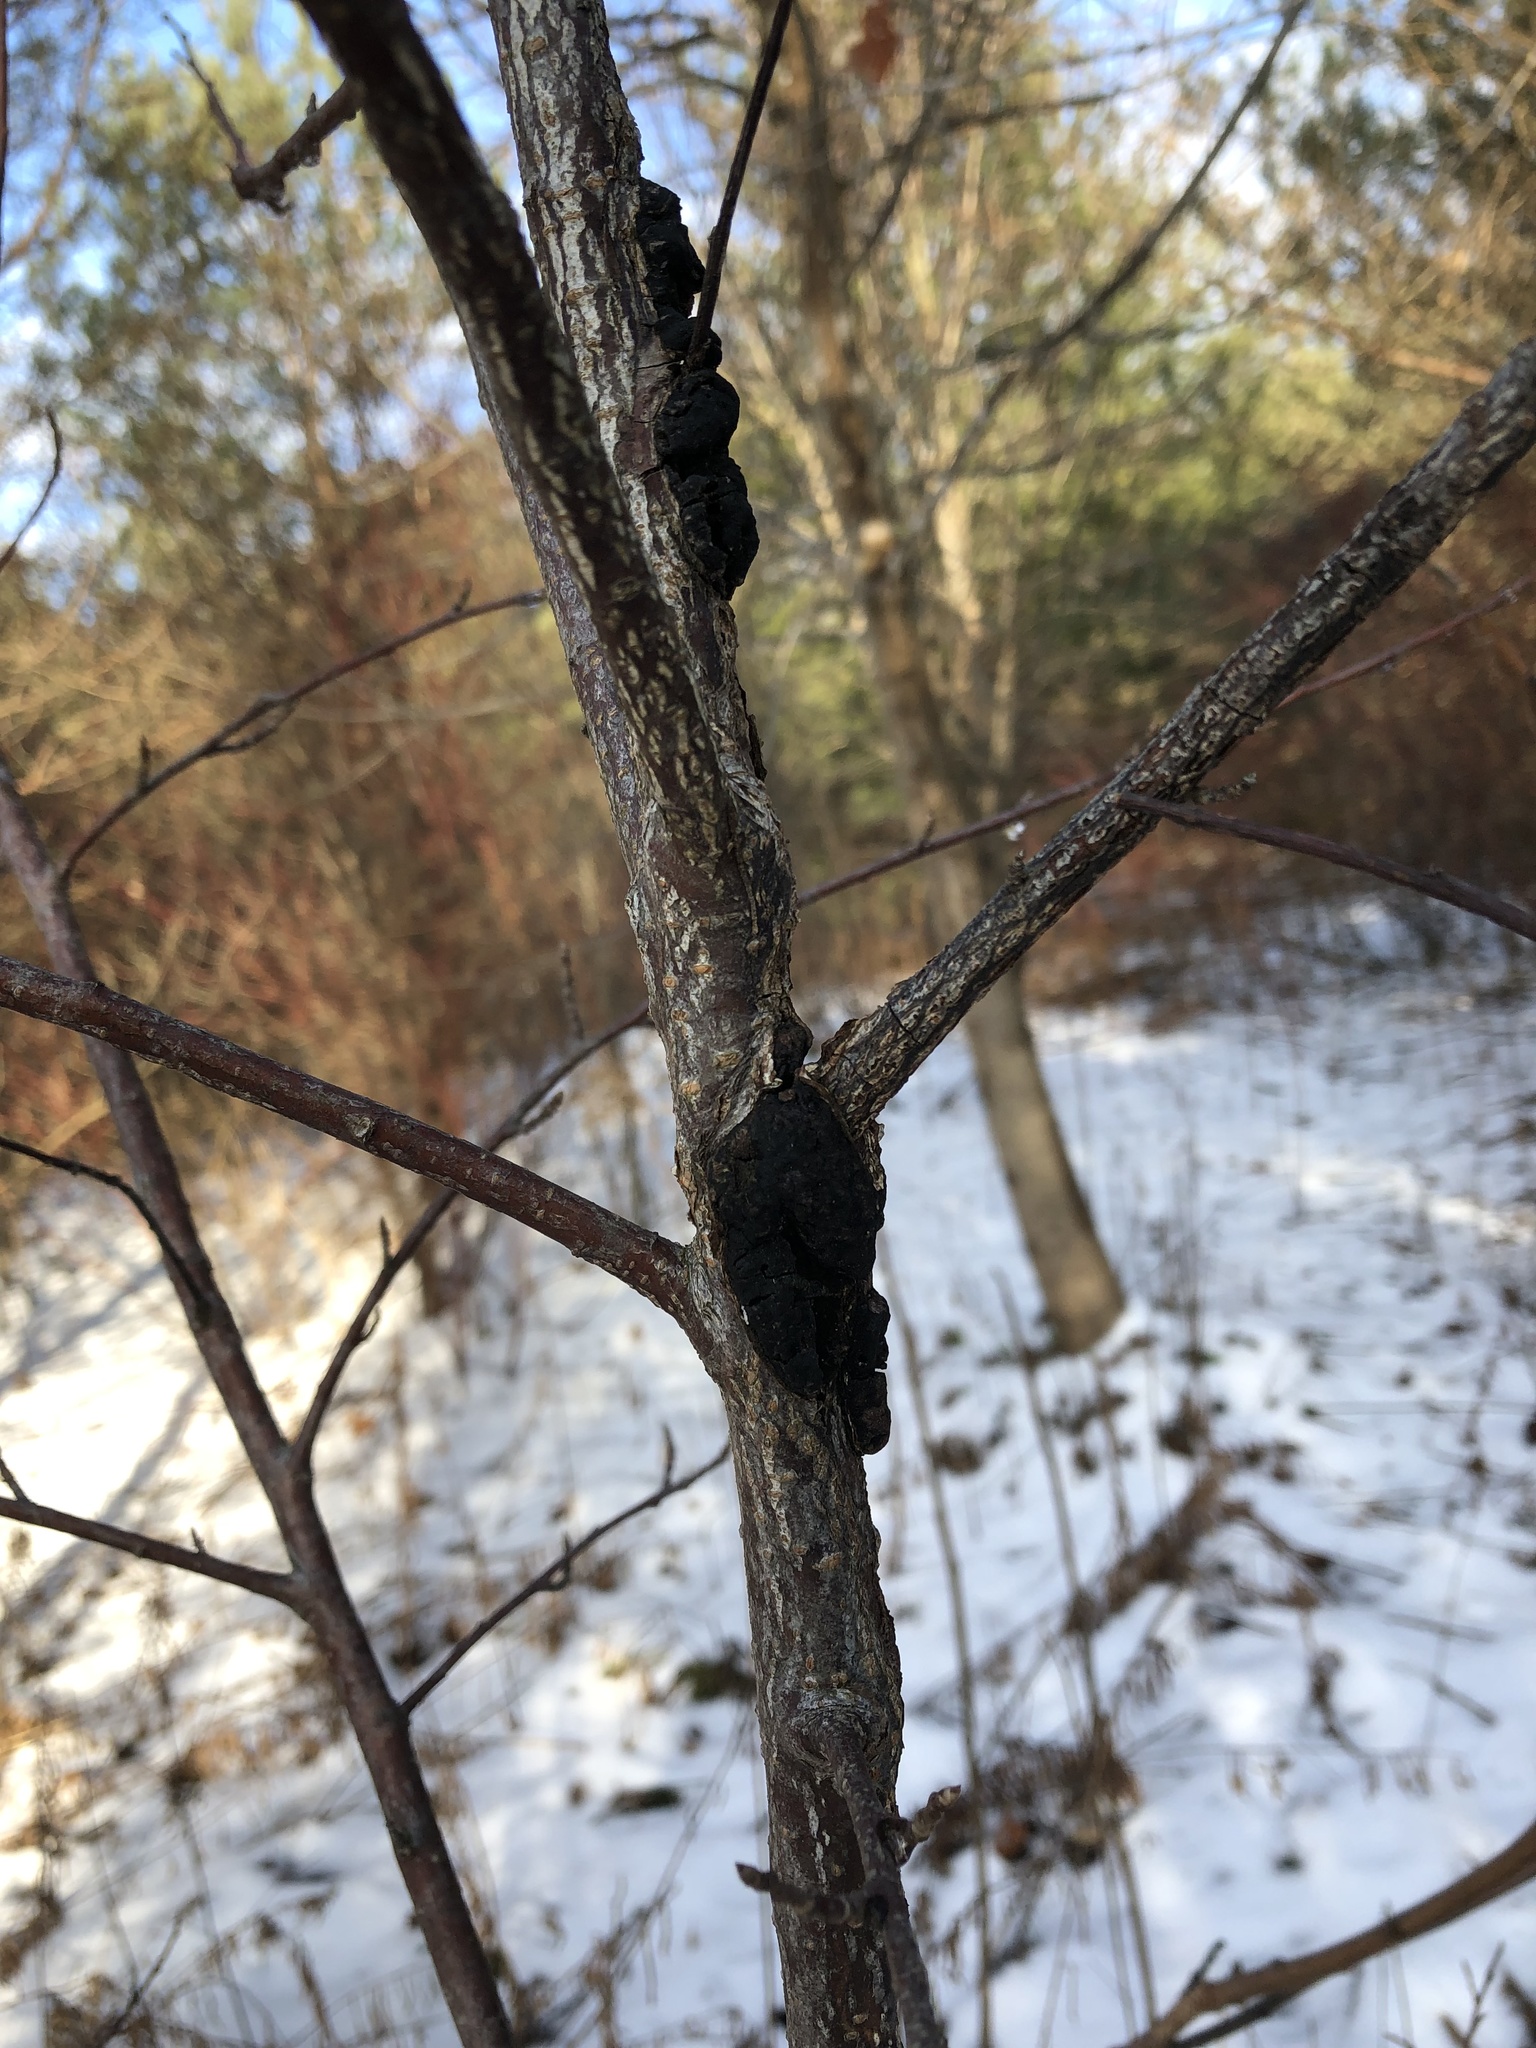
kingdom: Fungi
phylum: Ascomycota
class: Dothideomycetes
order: Venturiales
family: Venturiaceae
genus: Apiosporina
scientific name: Apiosporina morbosa
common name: Black knot
